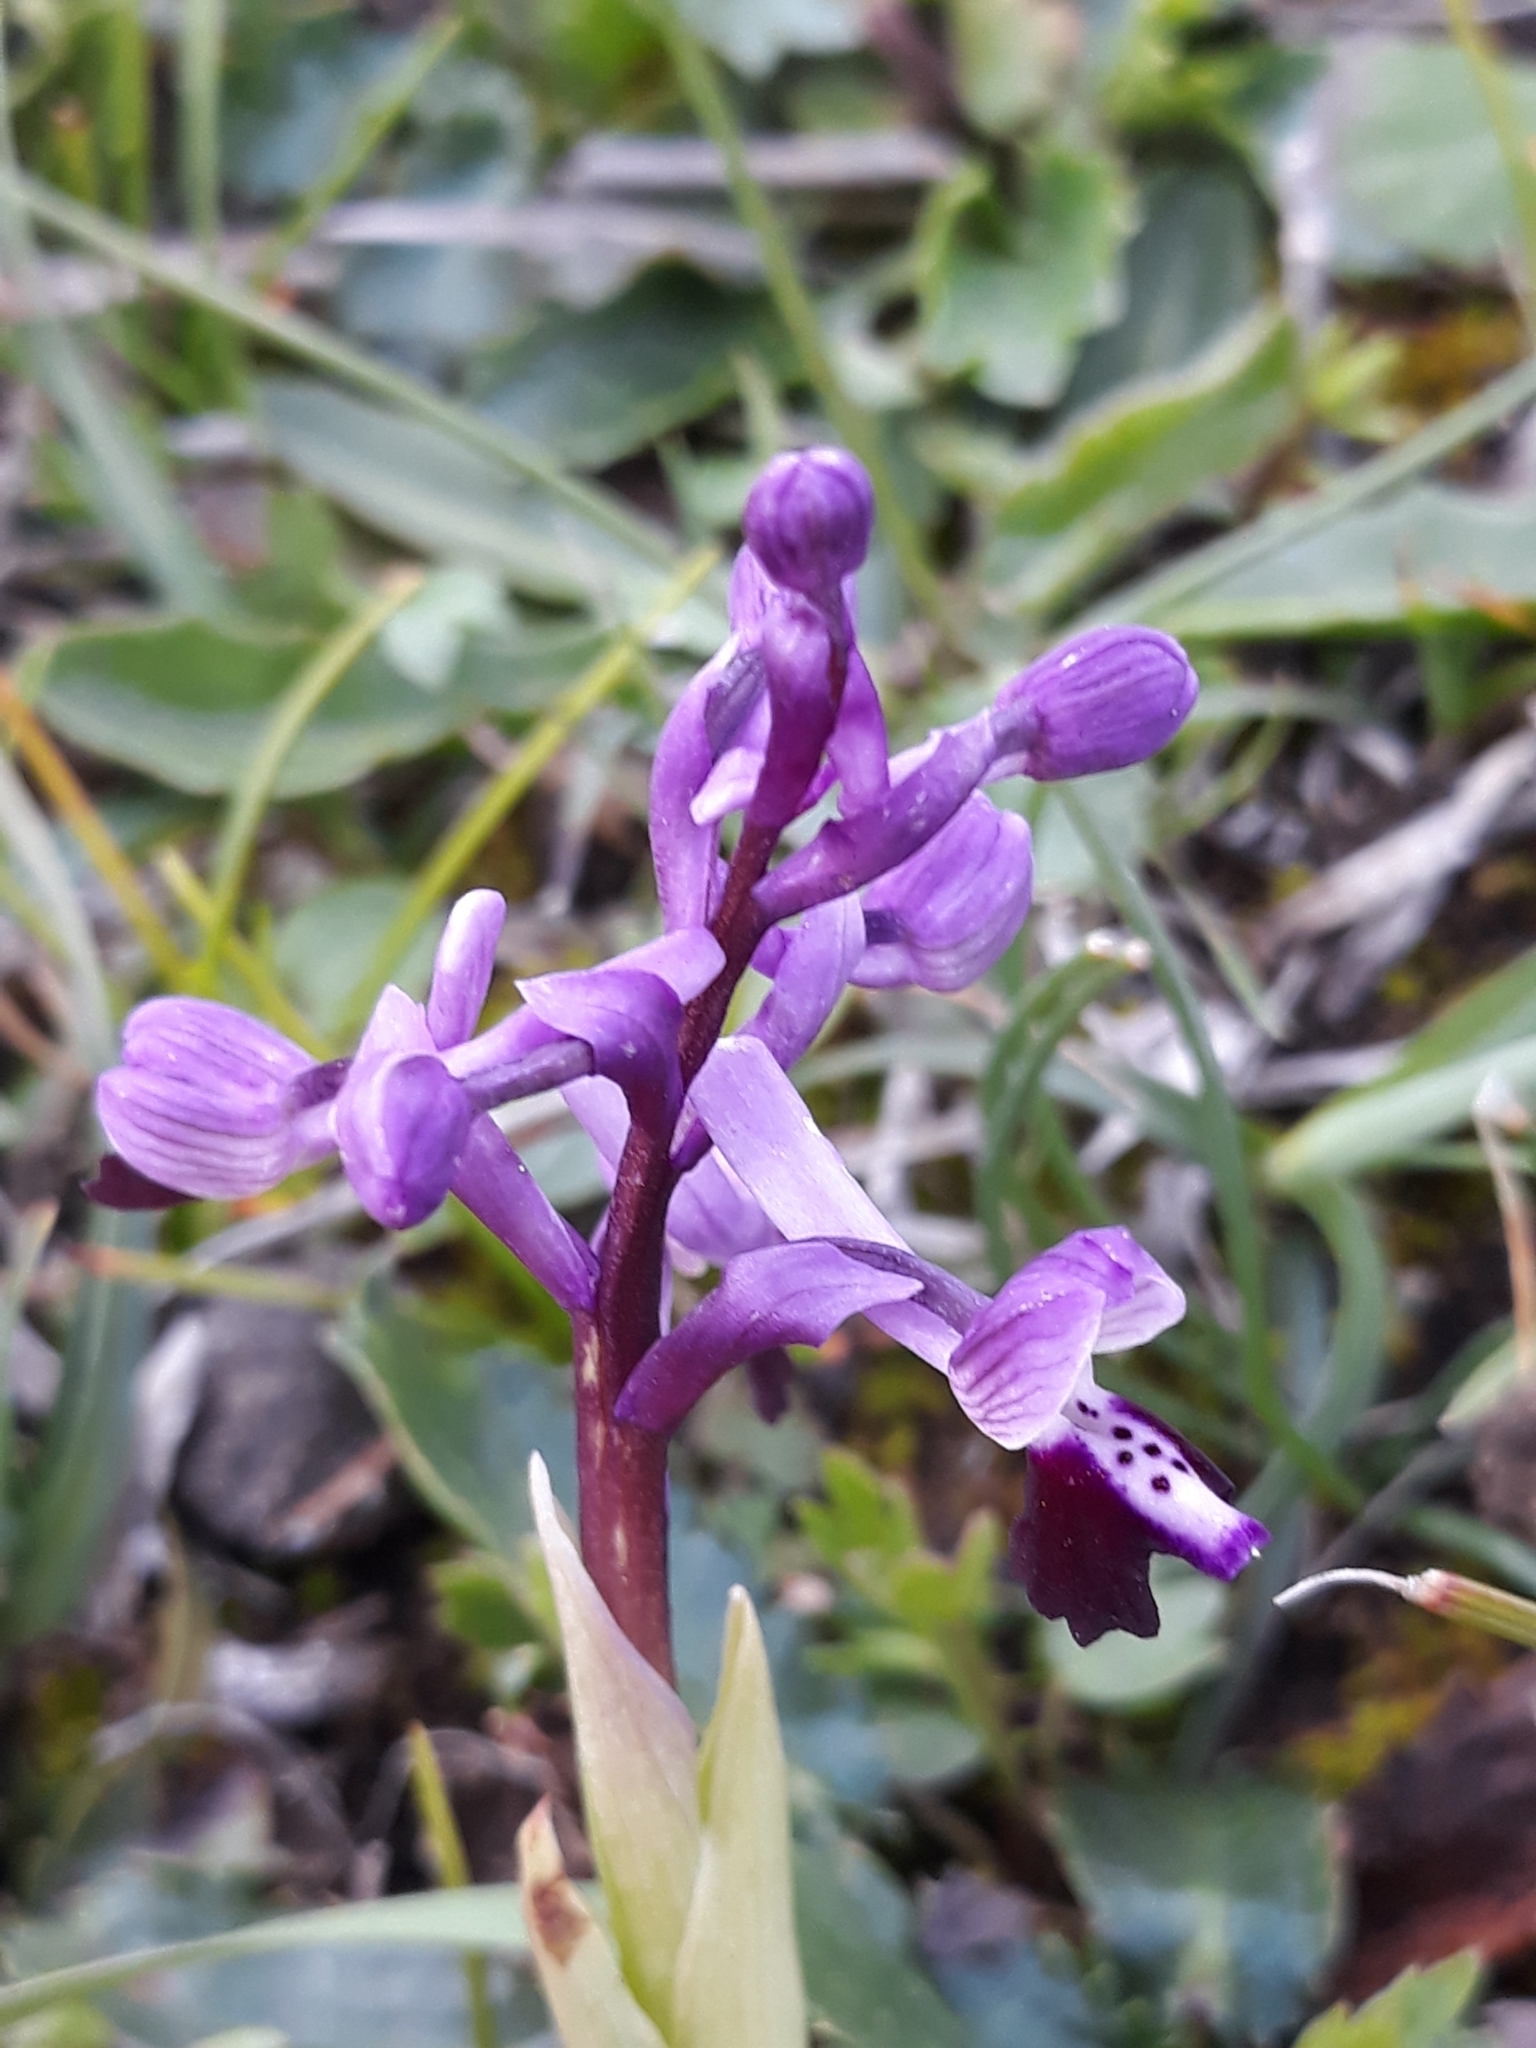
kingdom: Plantae
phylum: Tracheophyta
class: Liliopsida
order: Asparagales
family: Orchidaceae
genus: Anacamptis
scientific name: Anacamptis morio
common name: Green-winged orchid
